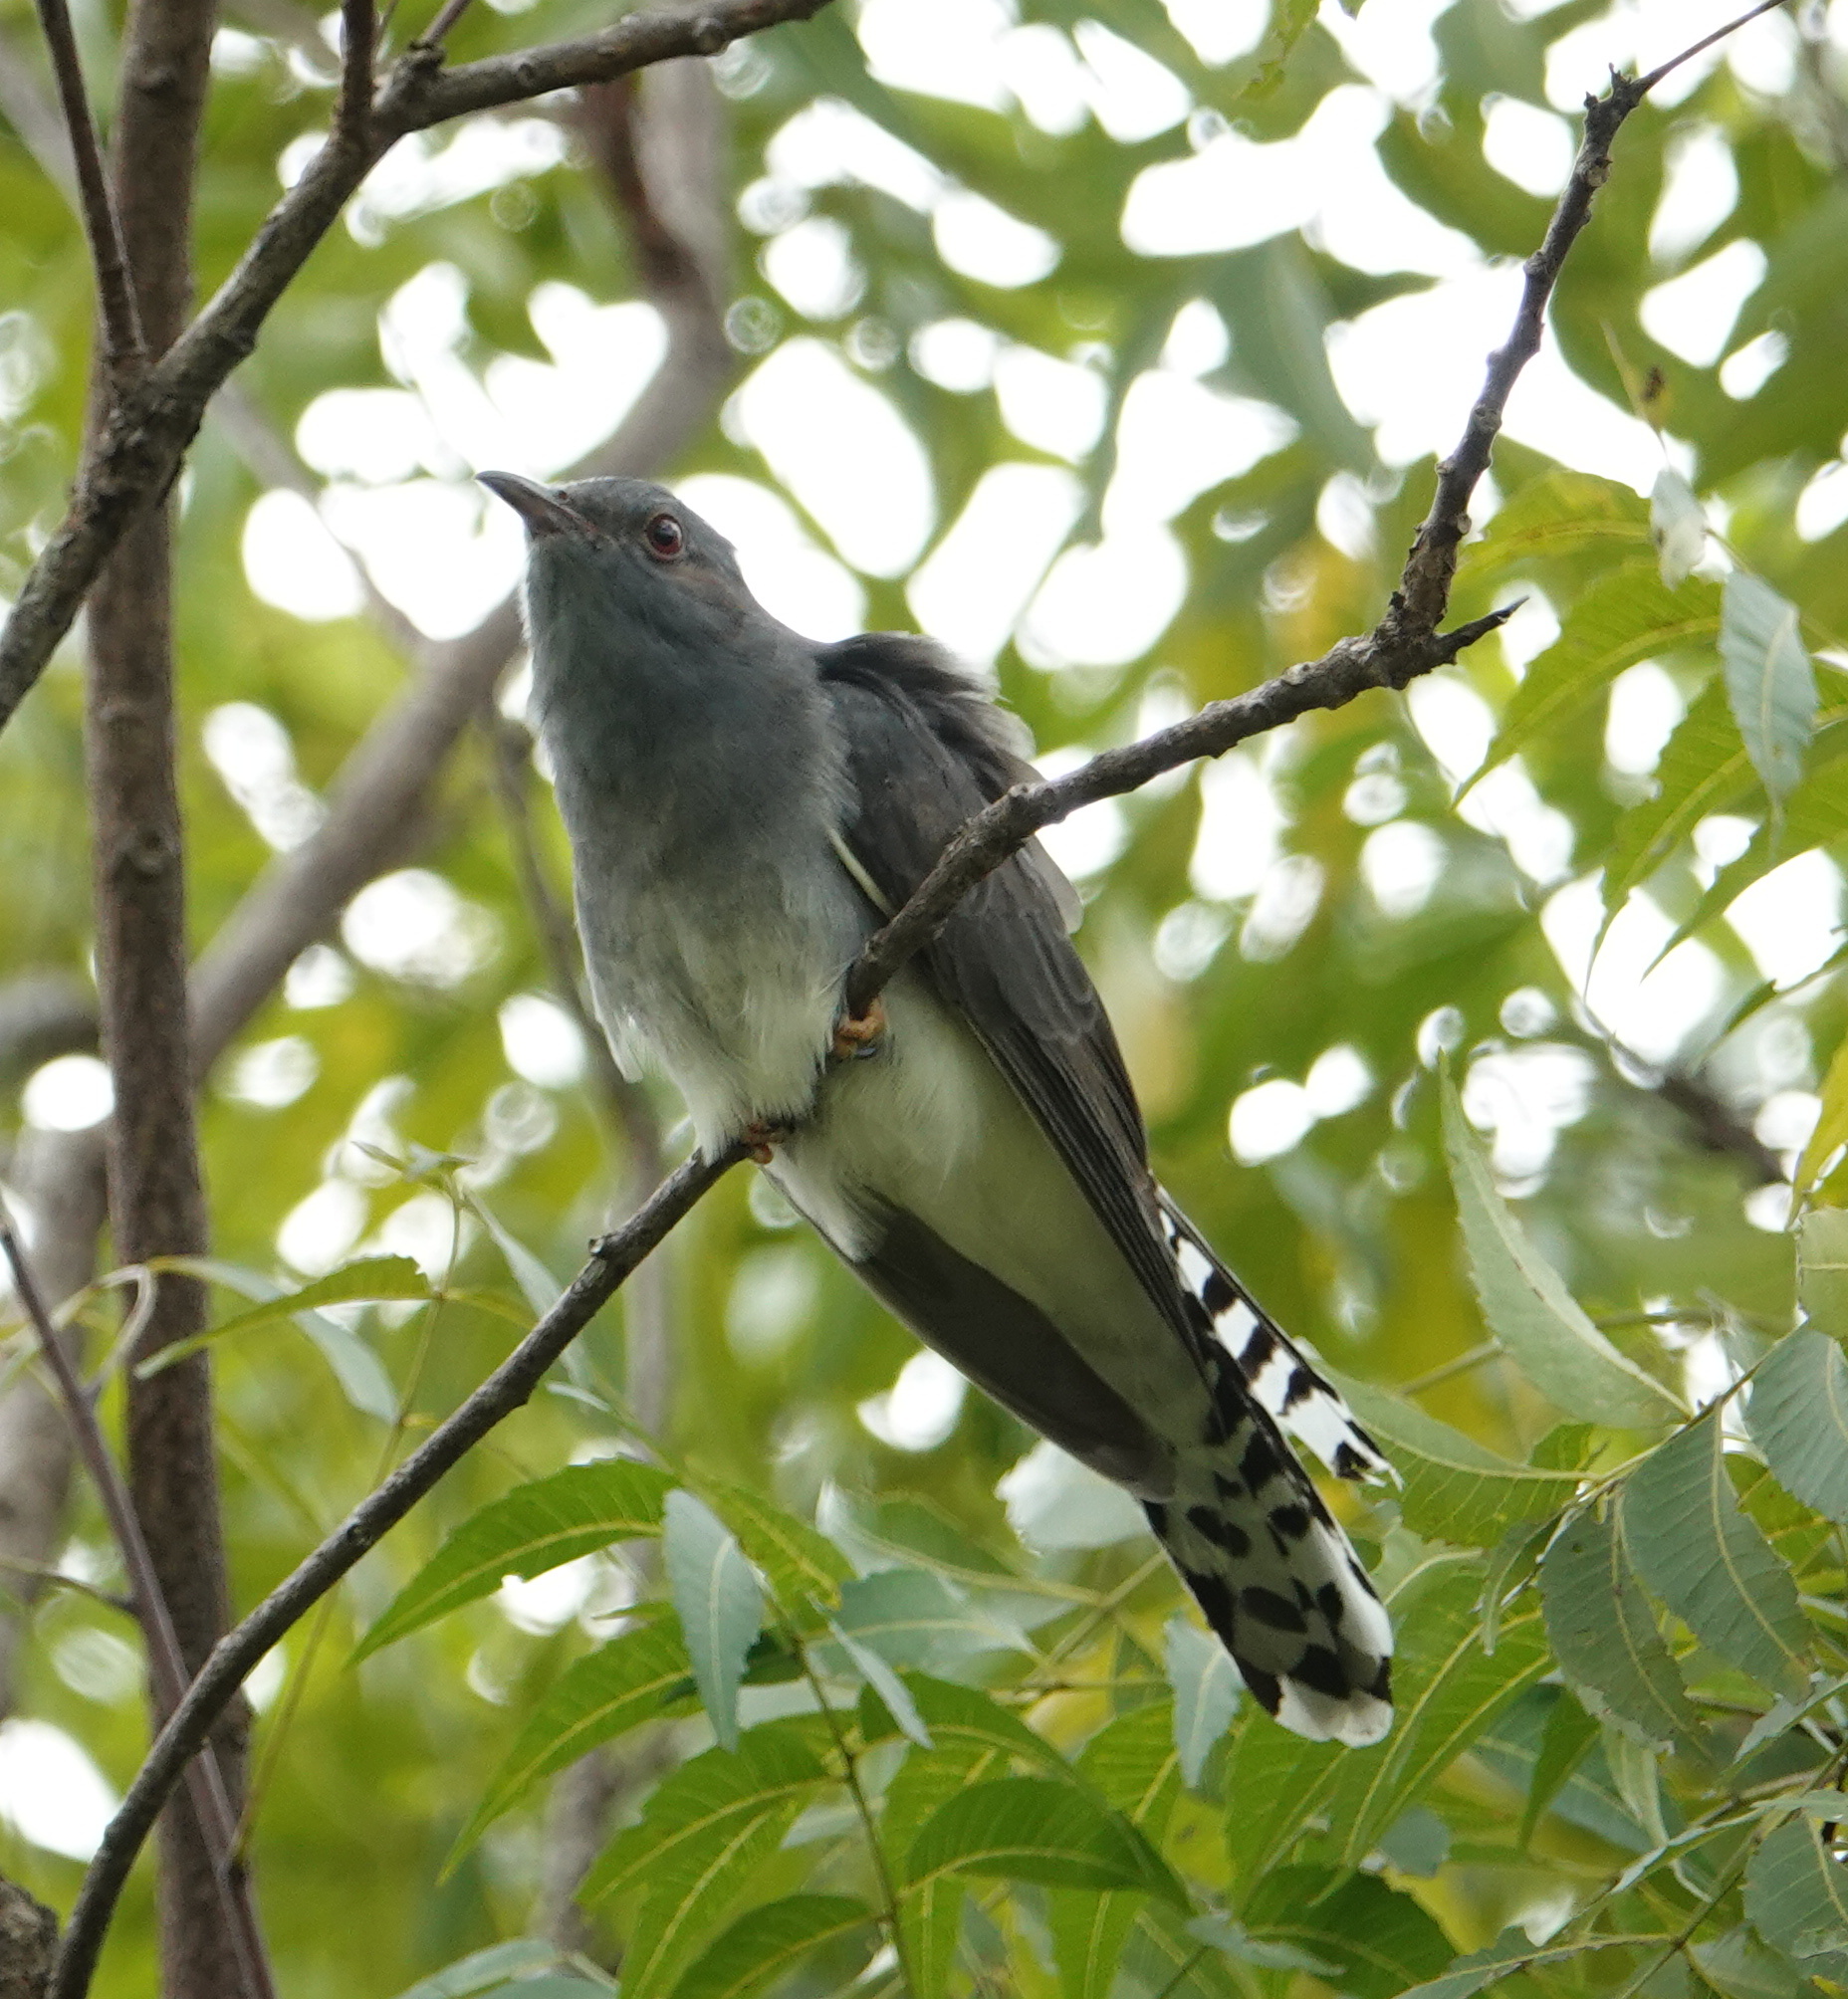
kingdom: Animalia
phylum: Chordata
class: Aves
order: Cuculiformes
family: Cuculidae
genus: Cacomantis
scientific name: Cacomantis passerinus
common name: Grey-bellied cuckoo
